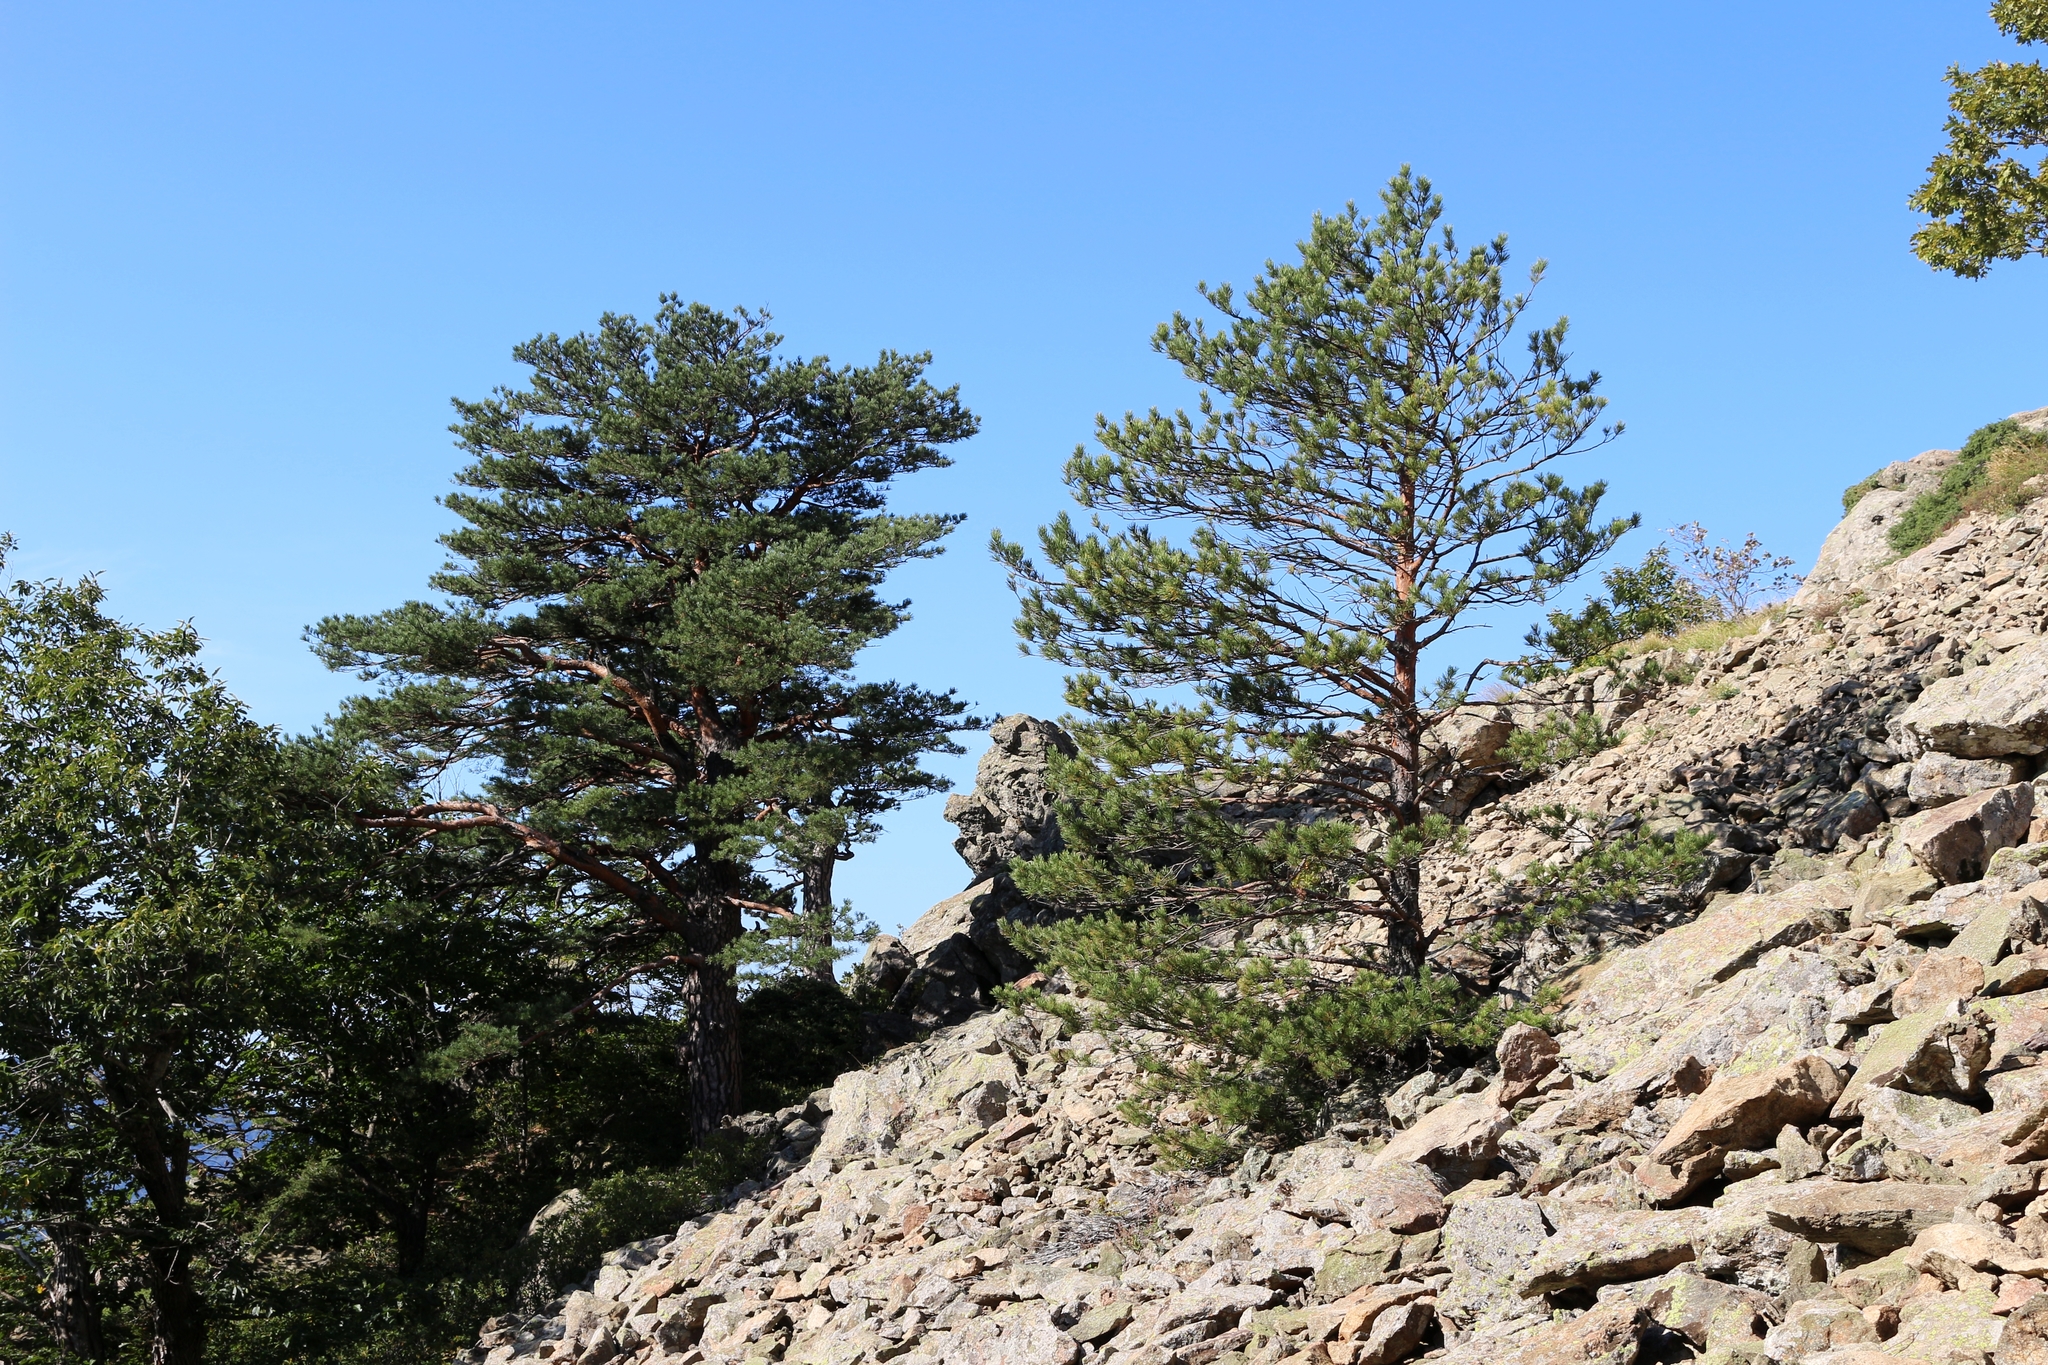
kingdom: Plantae
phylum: Tracheophyta
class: Pinopsida
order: Pinales
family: Pinaceae
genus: Pinus
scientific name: Pinus sylvestris
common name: Scots pine
